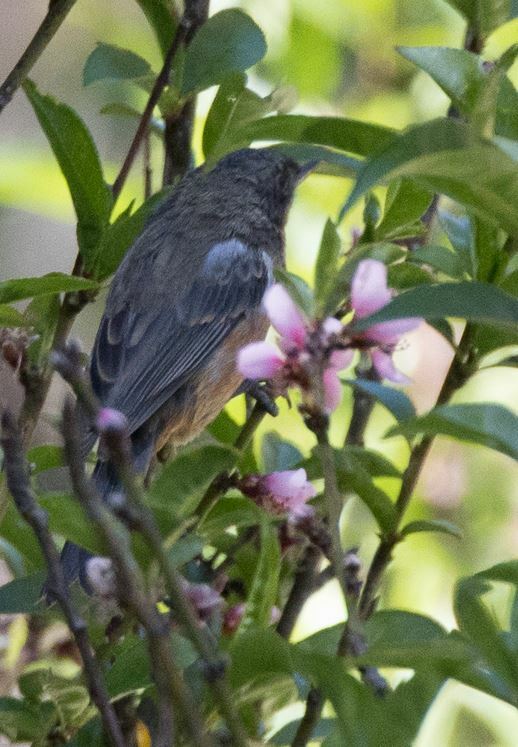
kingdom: Animalia
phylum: Chordata
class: Aves
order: Passeriformes
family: Thraupidae
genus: Diglossa
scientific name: Diglossa brunneiventris
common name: Black-throated flowerpiercer
